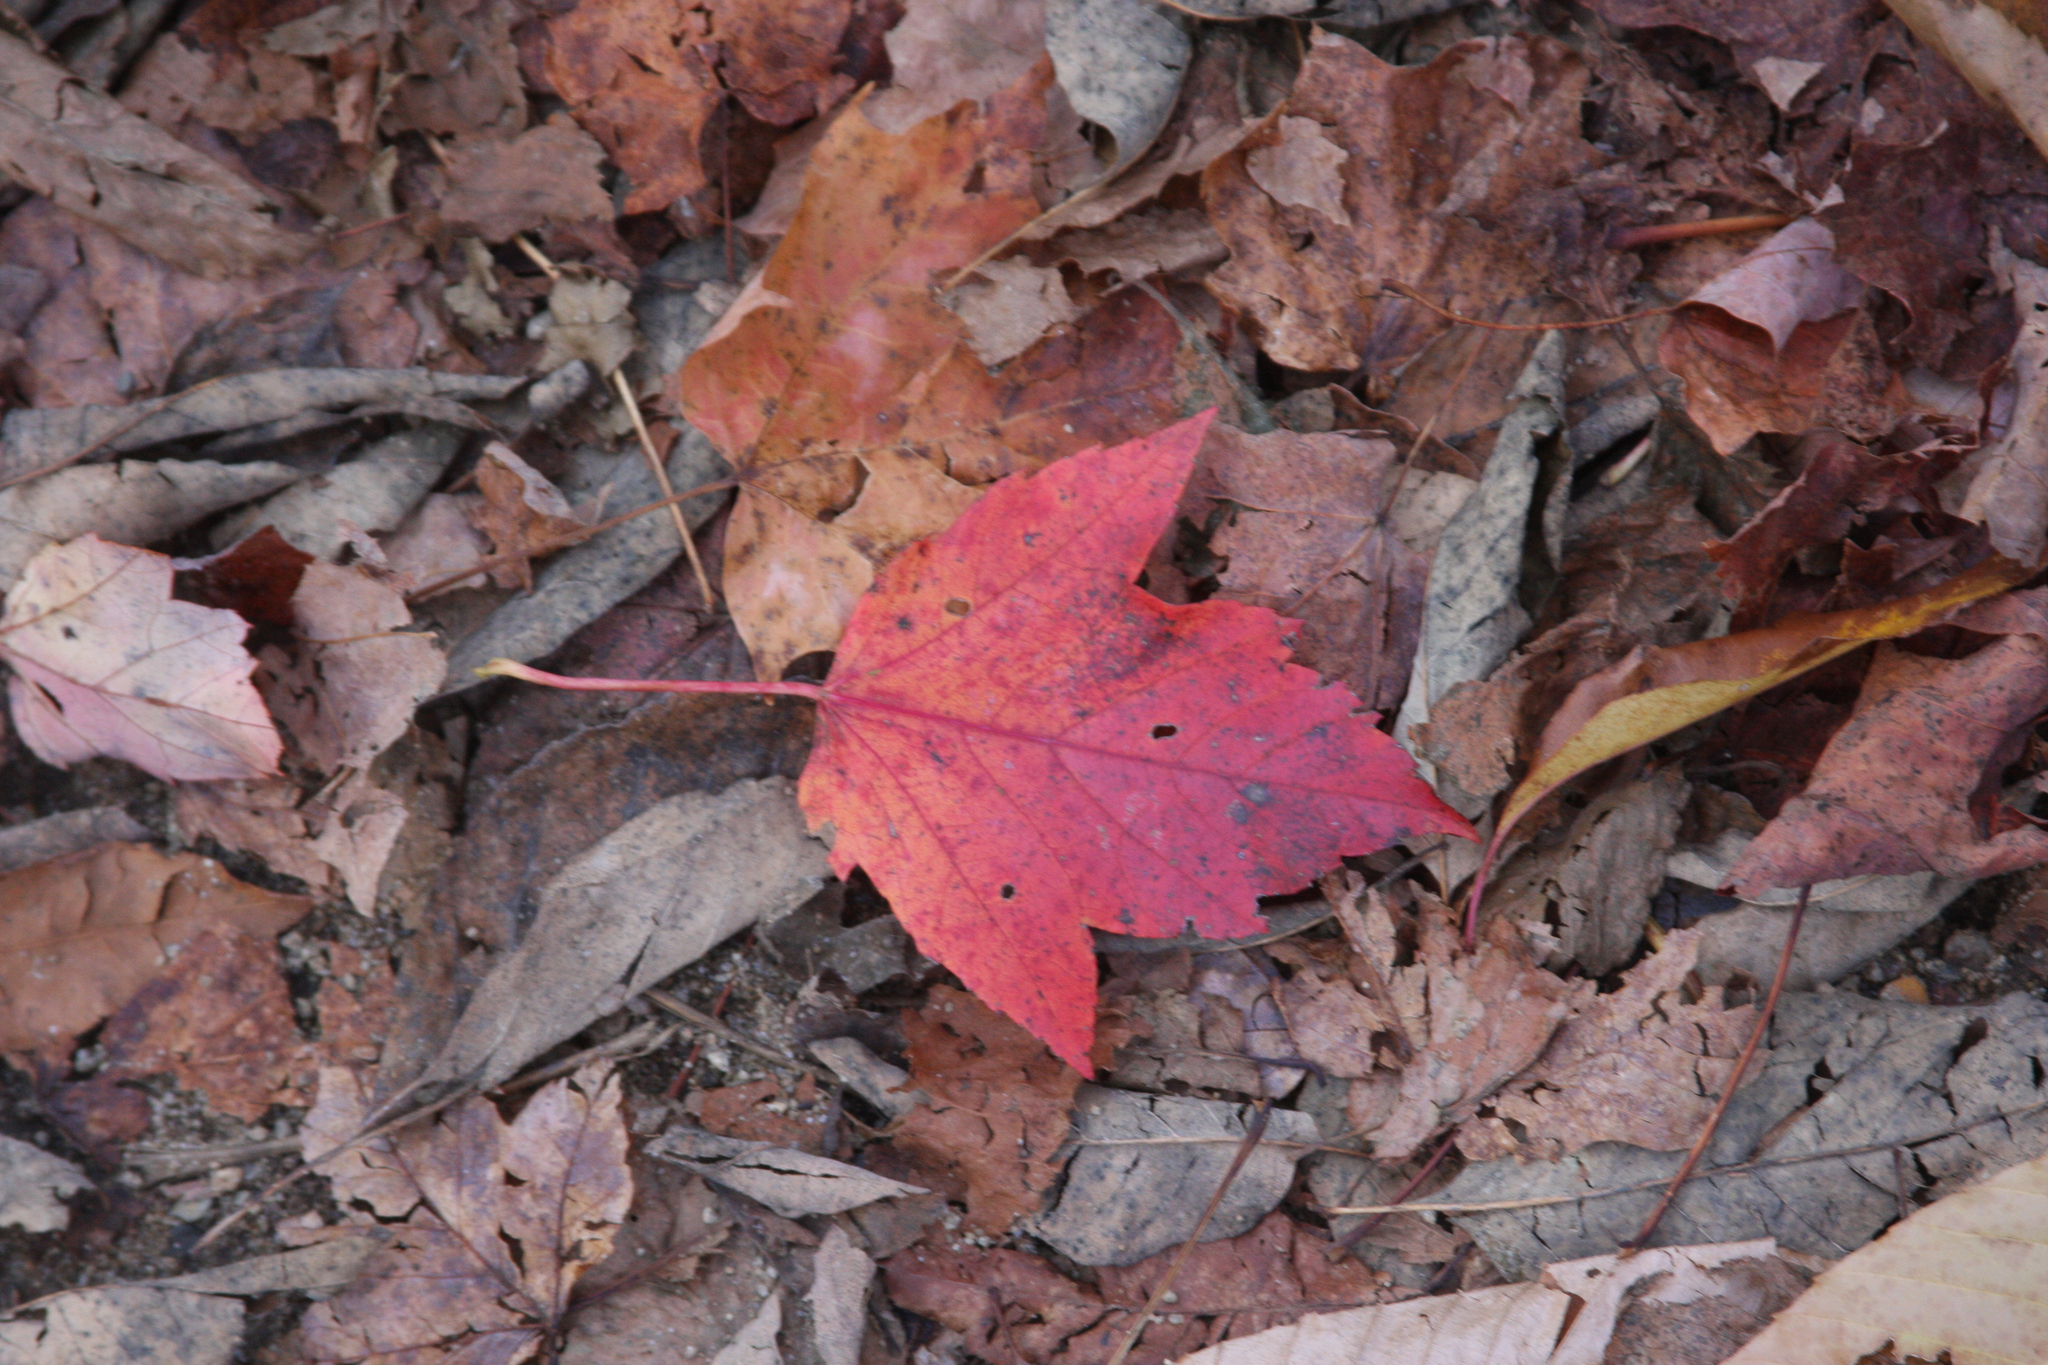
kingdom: Plantae
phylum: Tracheophyta
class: Magnoliopsida
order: Sapindales
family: Sapindaceae
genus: Acer
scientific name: Acer rubrum
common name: Red maple
